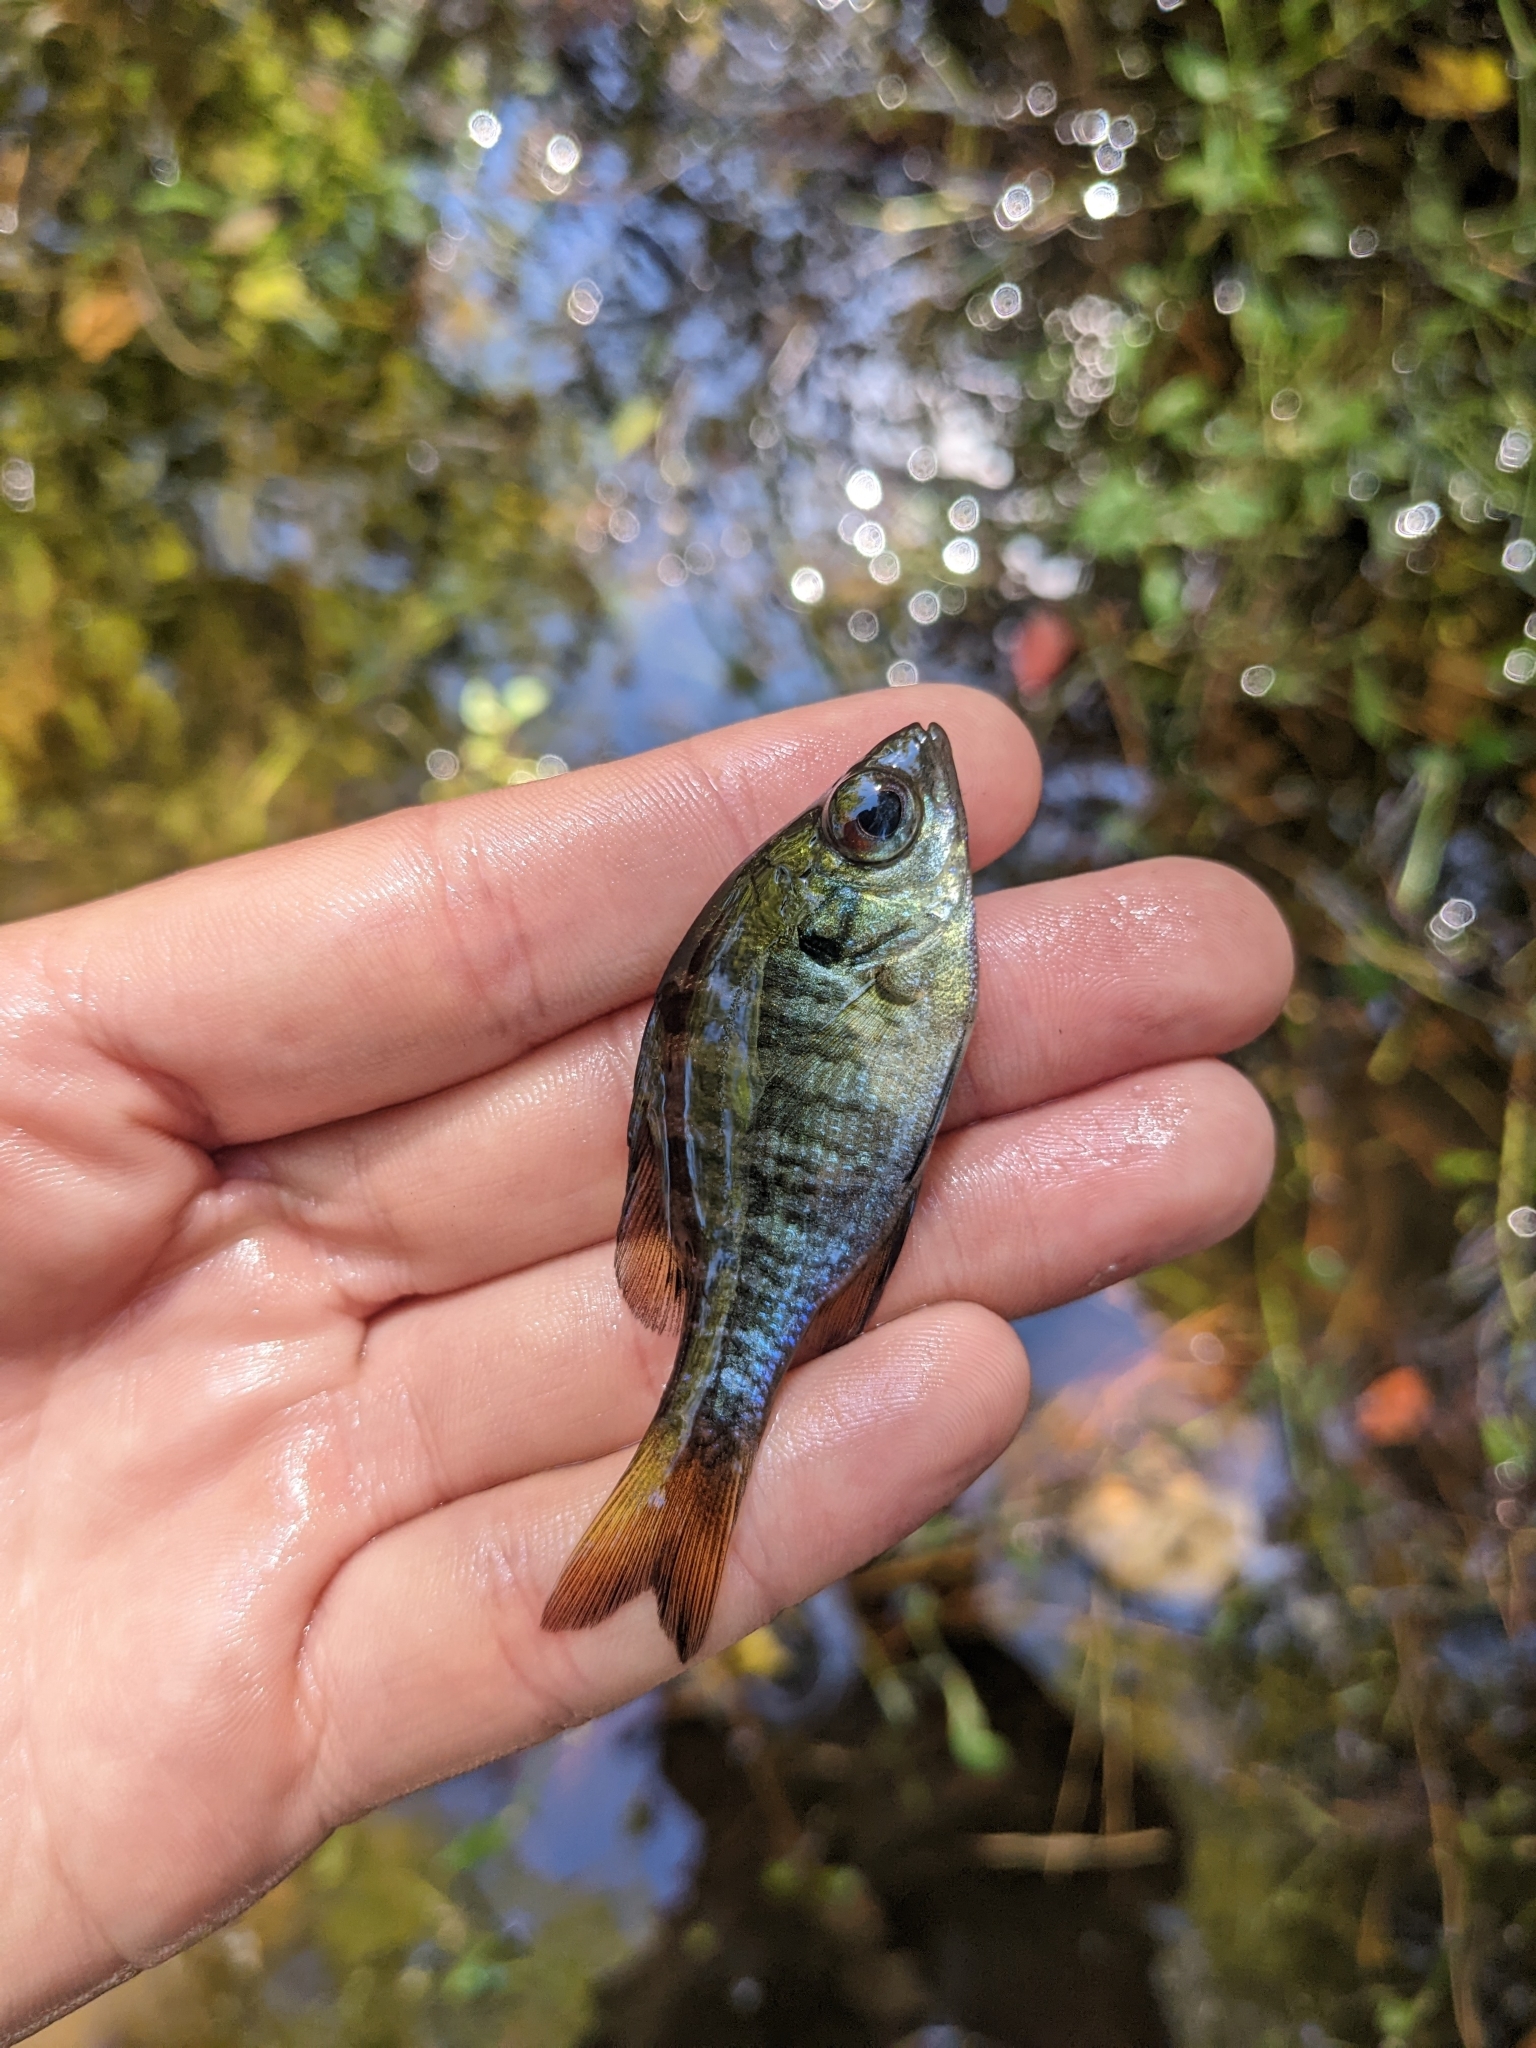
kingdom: Animalia
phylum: Chordata
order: Perciformes
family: Centrarchidae
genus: Lepomis
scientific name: Lepomis macrochirus
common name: Bluegill
